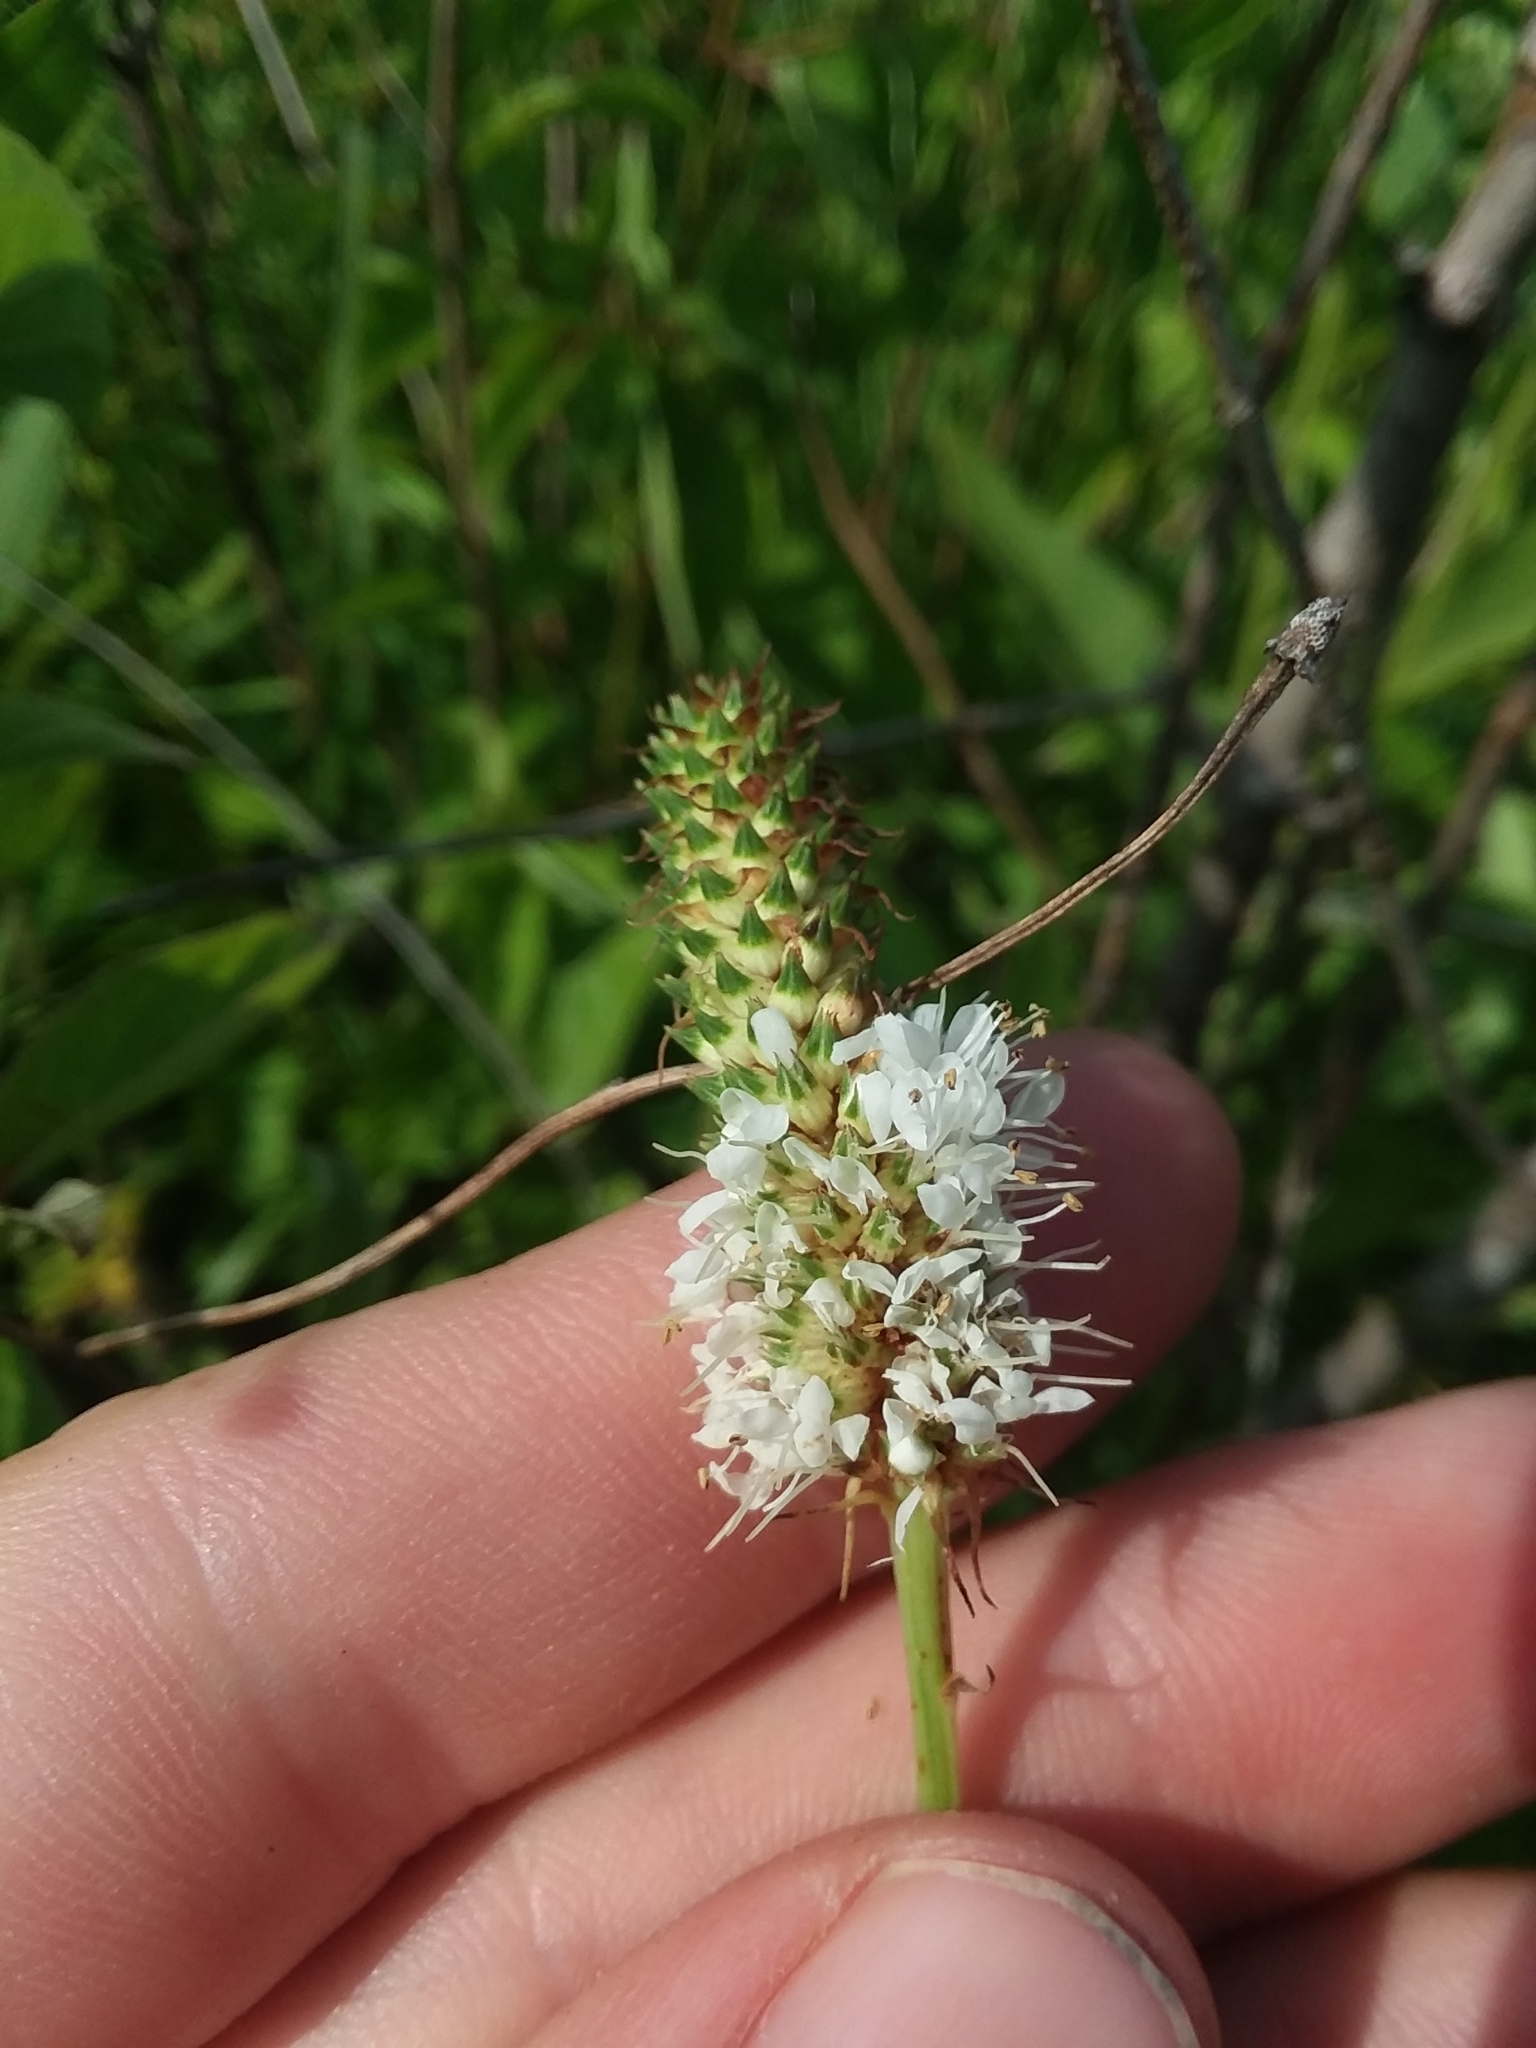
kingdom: Plantae
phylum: Tracheophyta
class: Magnoliopsida
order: Fabales
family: Fabaceae
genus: Dalea
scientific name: Dalea candida
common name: White prairie-clover
